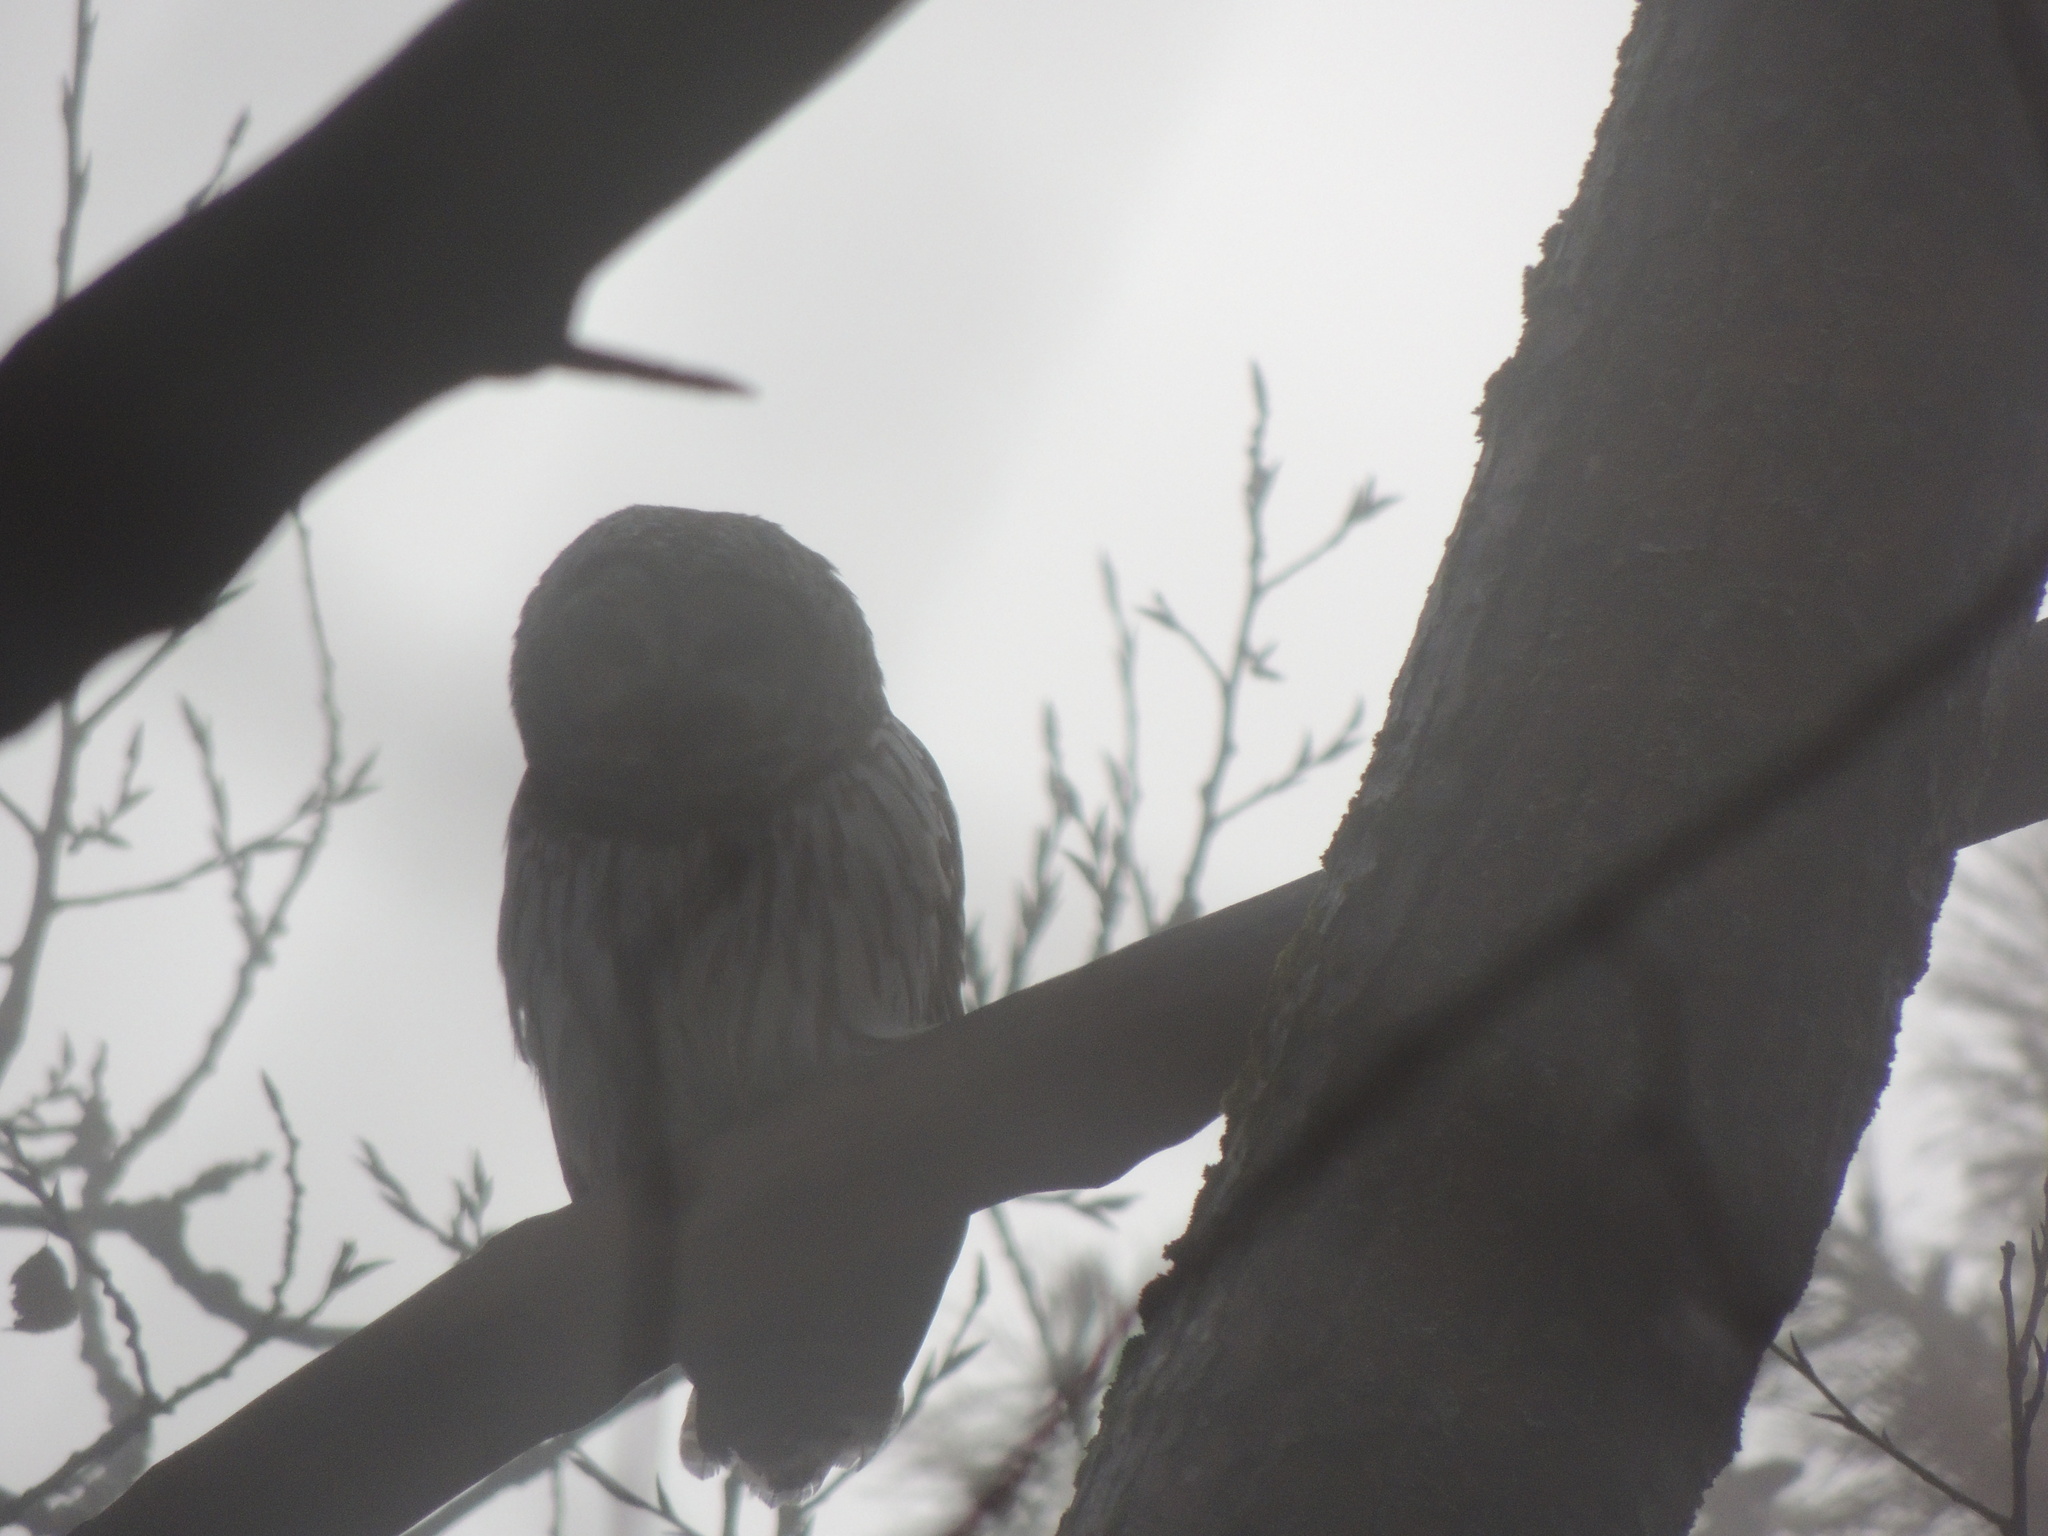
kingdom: Animalia
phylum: Chordata
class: Aves
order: Strigiformes
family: Strigidae
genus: Strix
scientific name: Strix varia
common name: Barred owl
